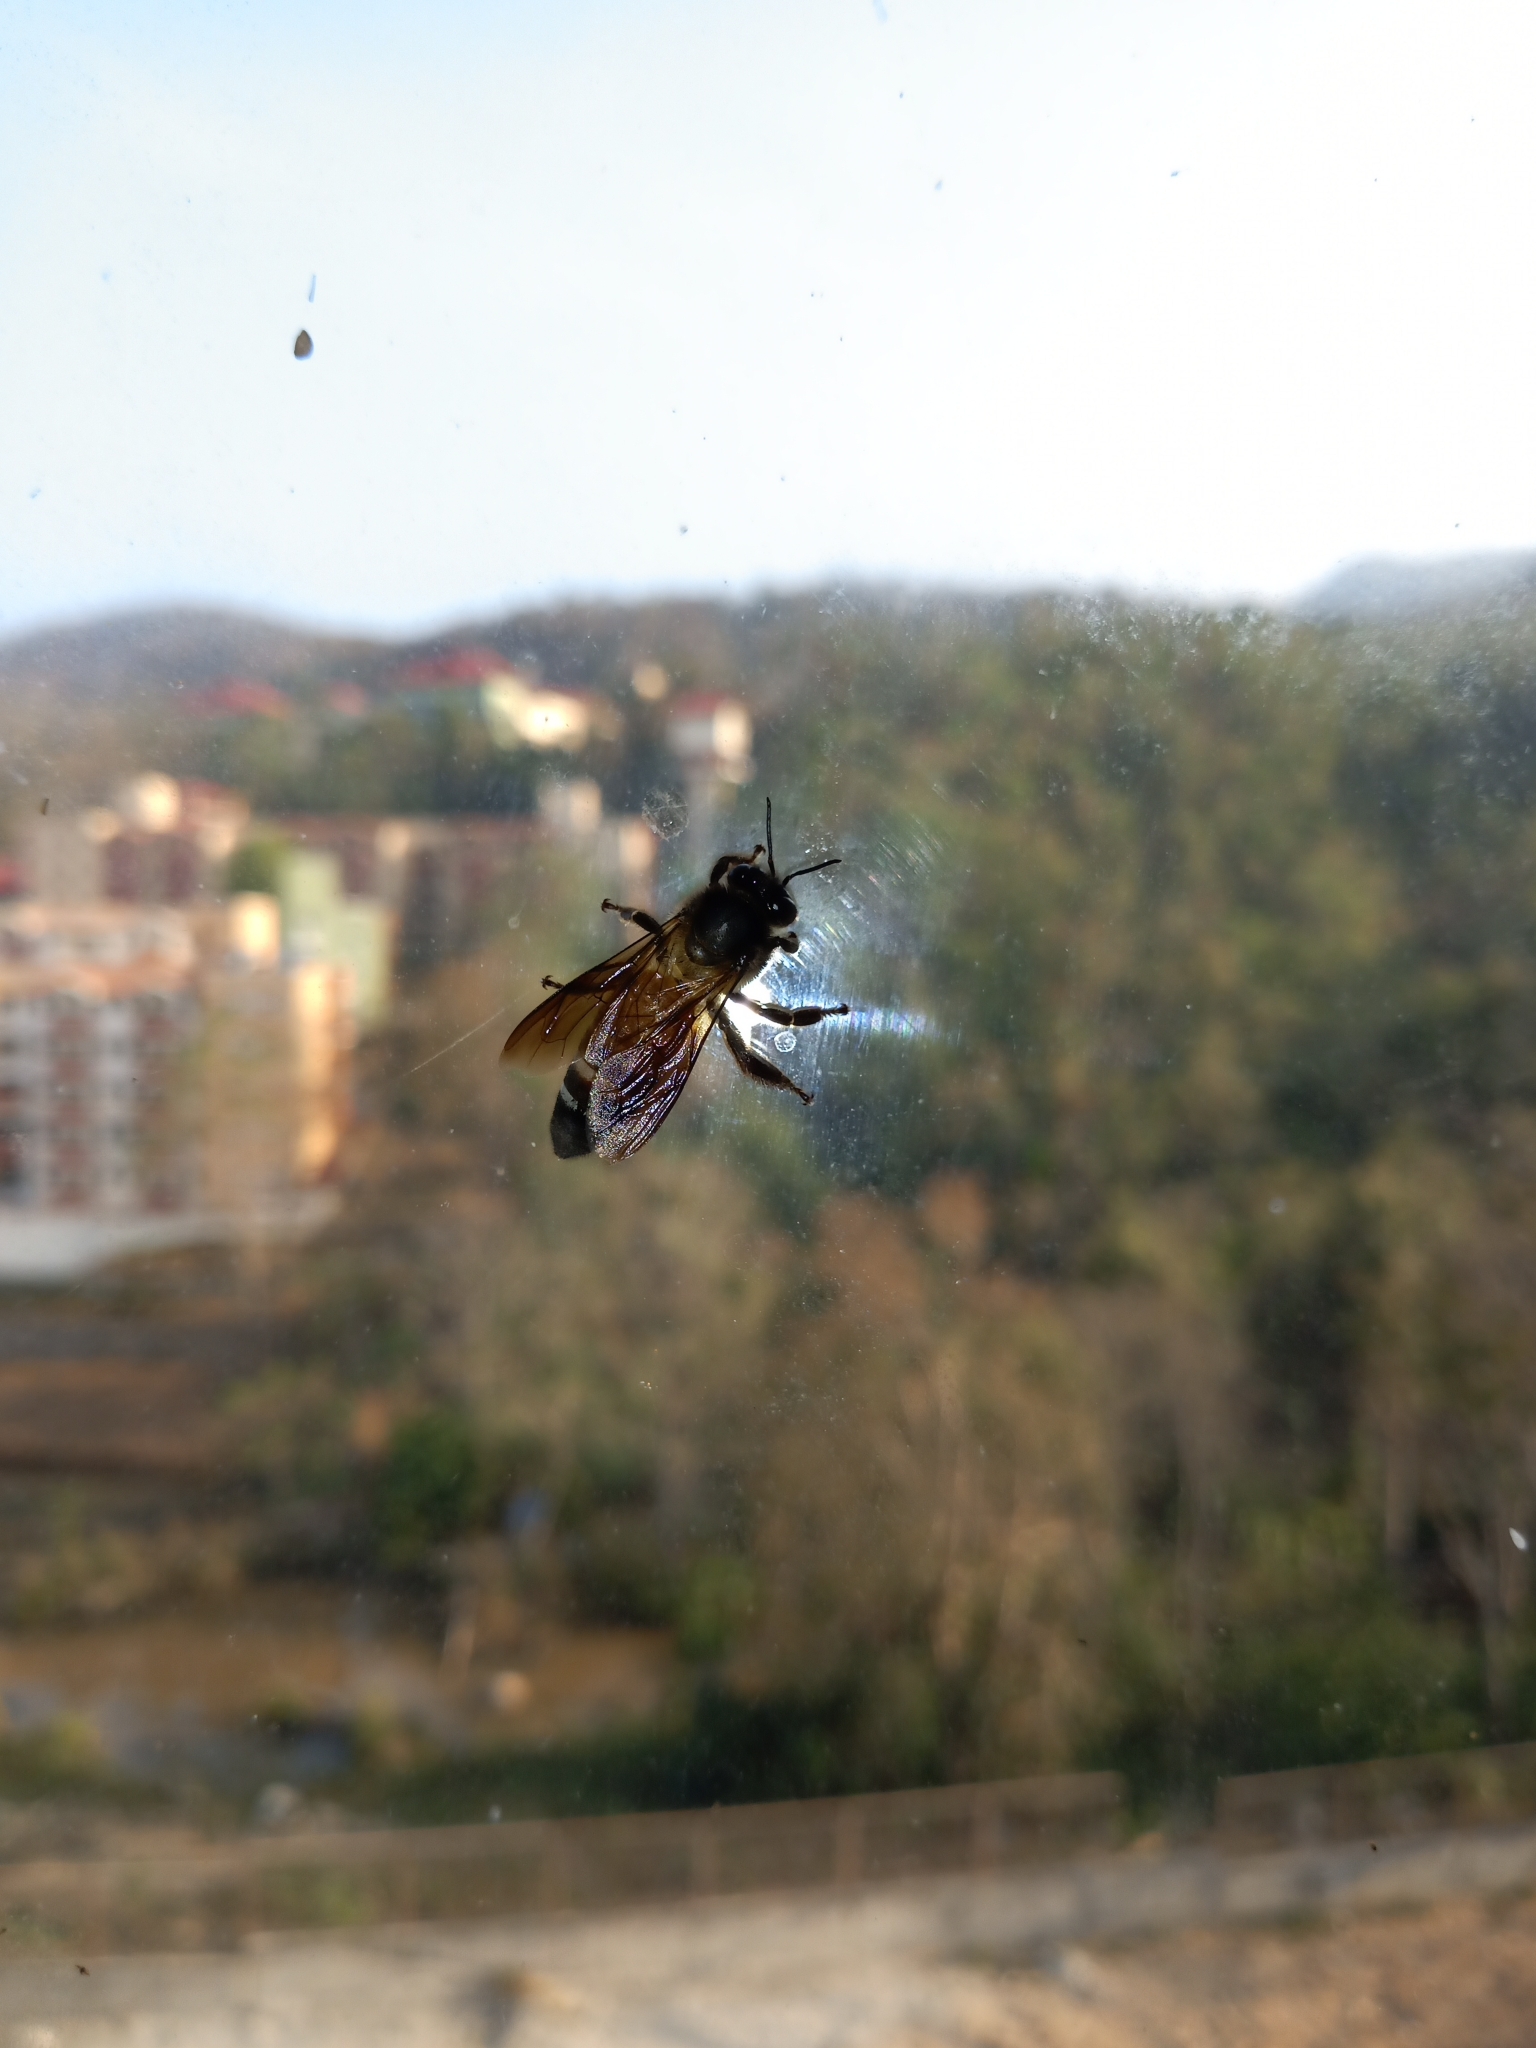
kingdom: Animalia
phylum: Arthropoda
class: Insecta
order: Hymenoptera
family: Apidae
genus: Apis
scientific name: Apis dorsata
